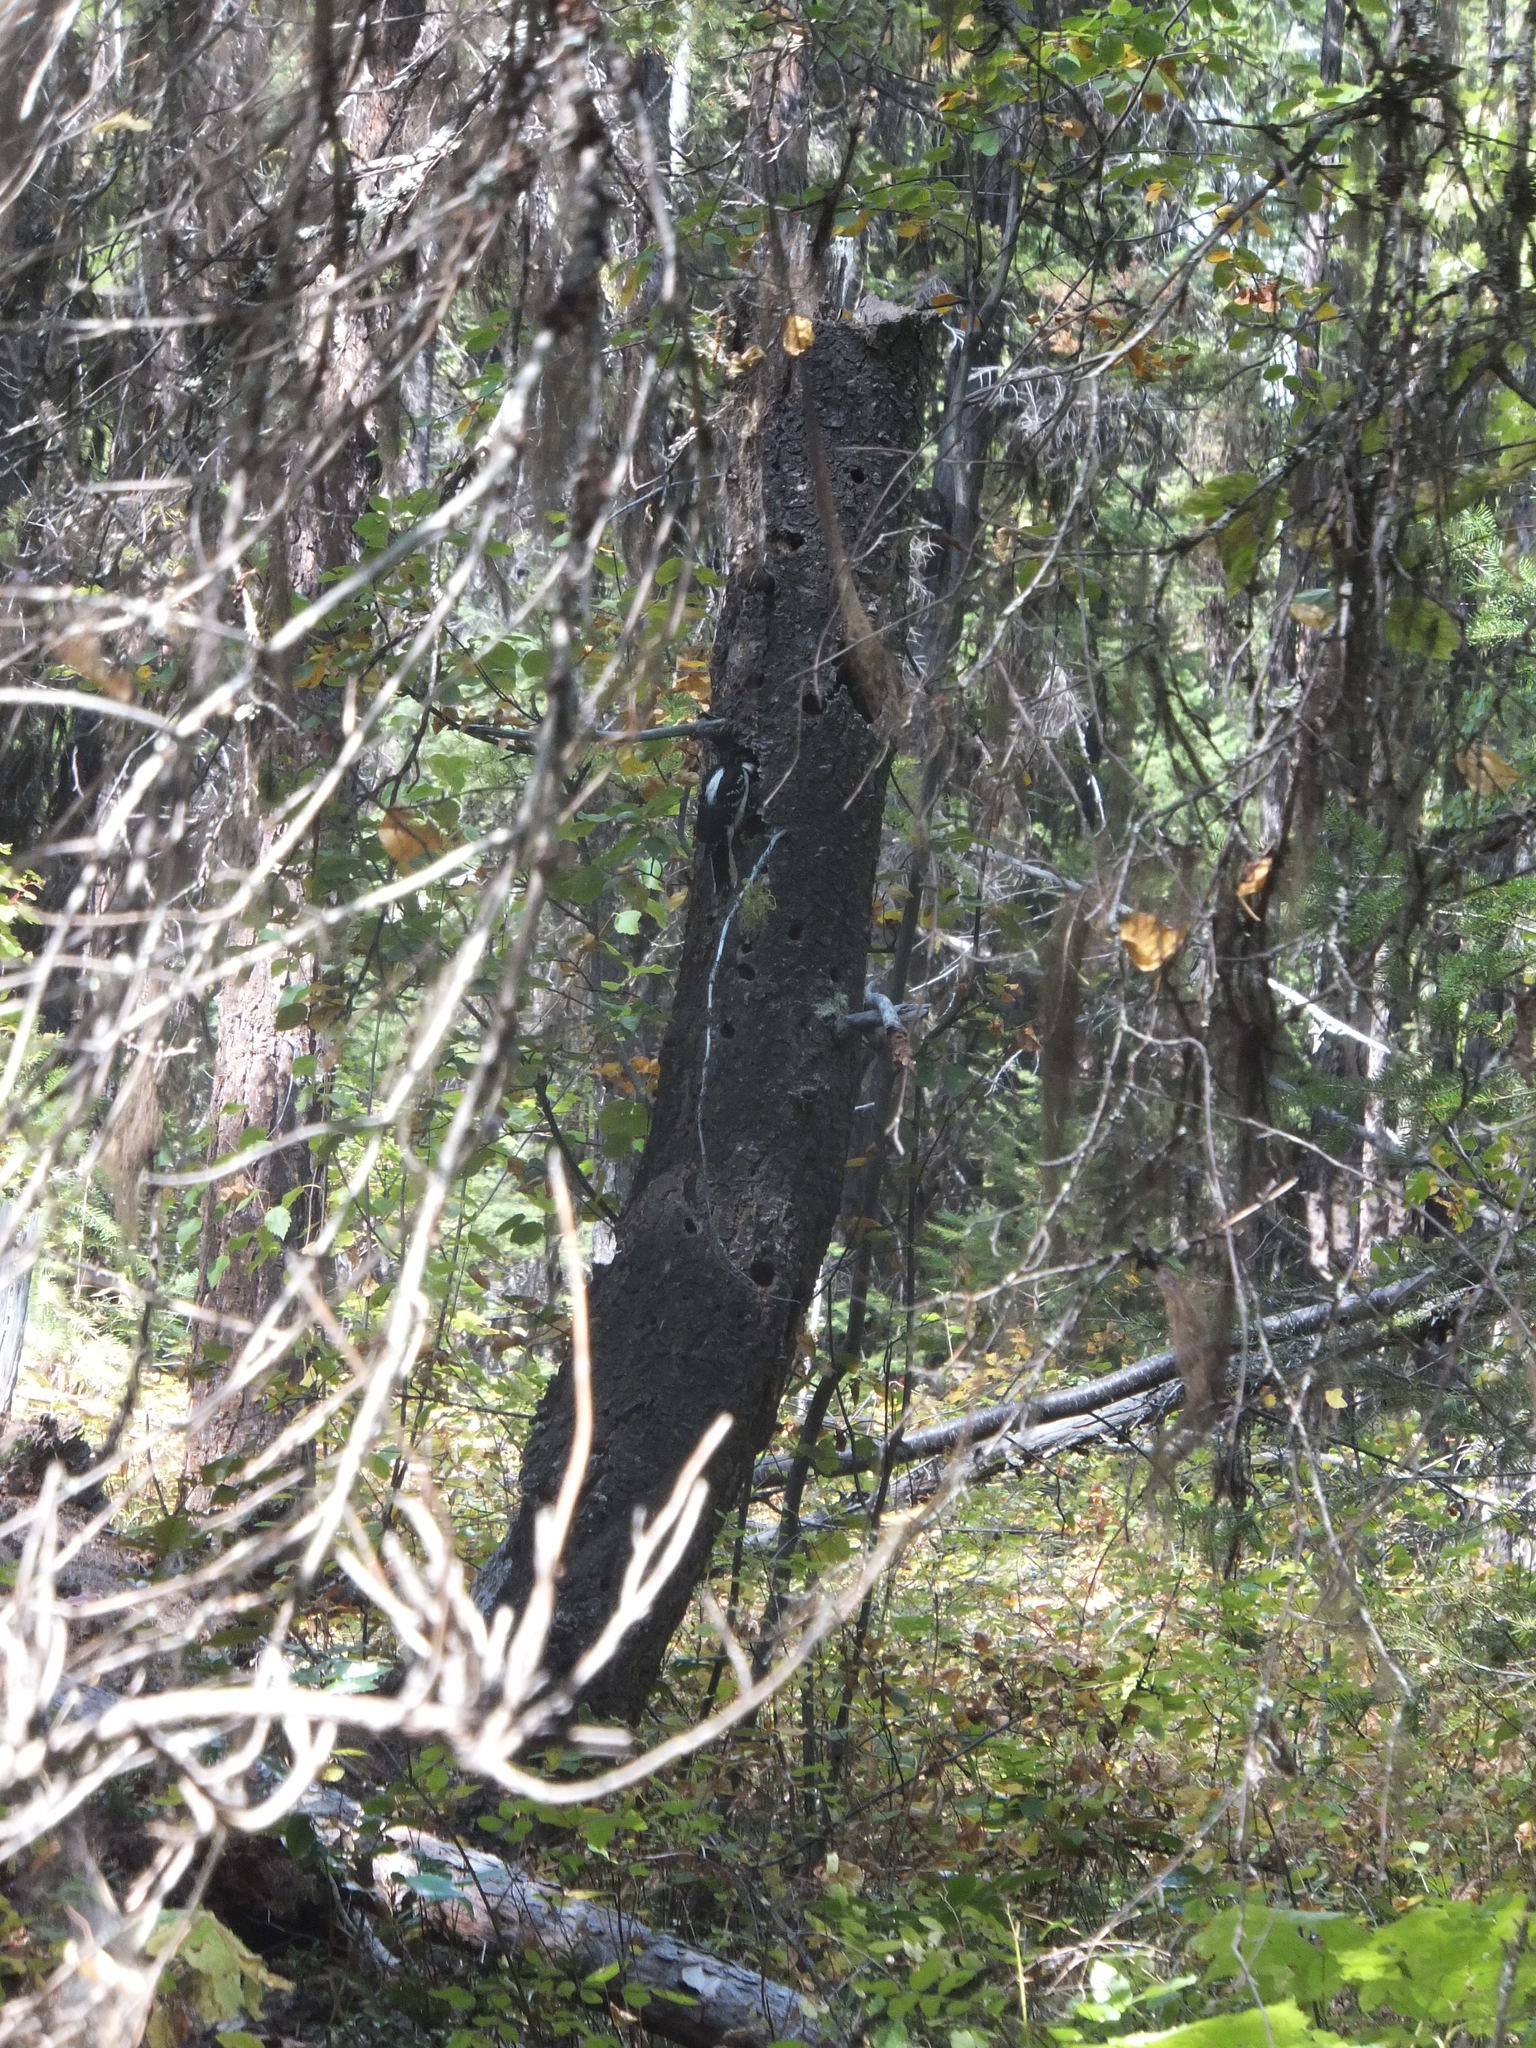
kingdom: Animalia
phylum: Chordata
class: Aves
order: Piciformes
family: Picidae
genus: Leuconotopicus
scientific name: Leuconotopicus villosus
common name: Hairy woodpecker
